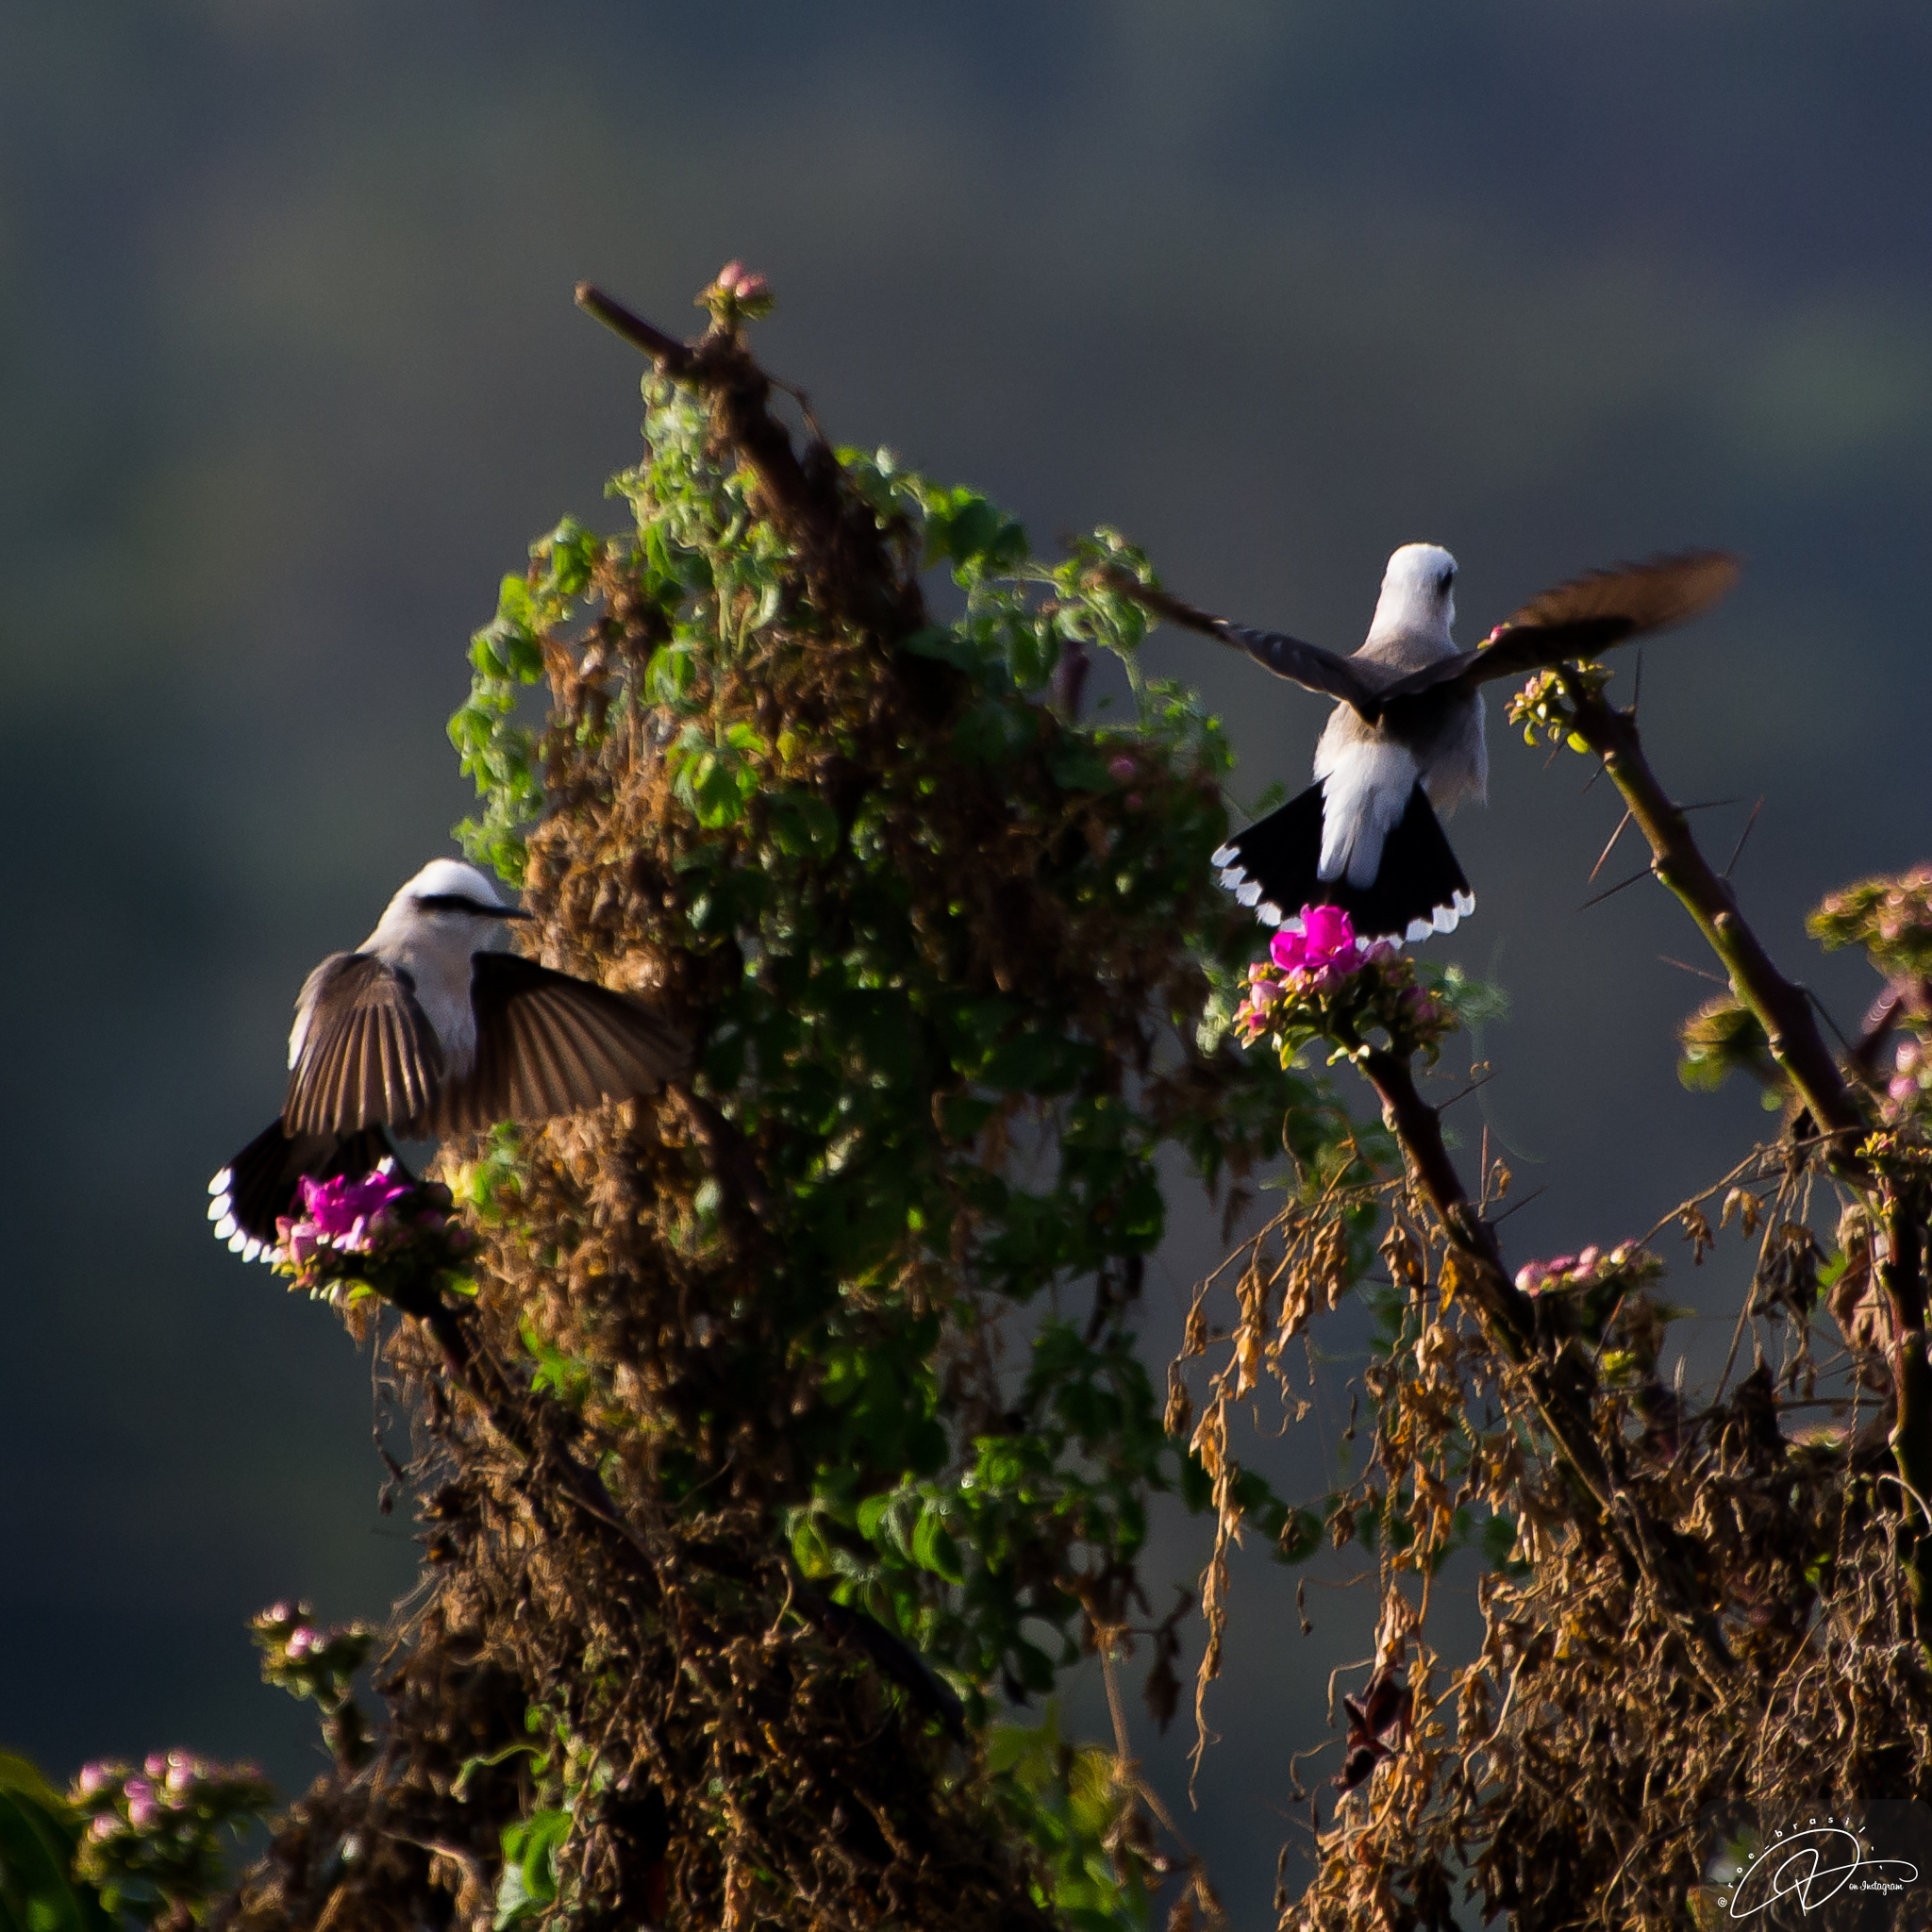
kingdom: Animalia
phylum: Chordata
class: Aves
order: Passeriformes
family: Tyrannidae
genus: Fluvicola
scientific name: Fluvicola nengeta
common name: Masked water tyrant
